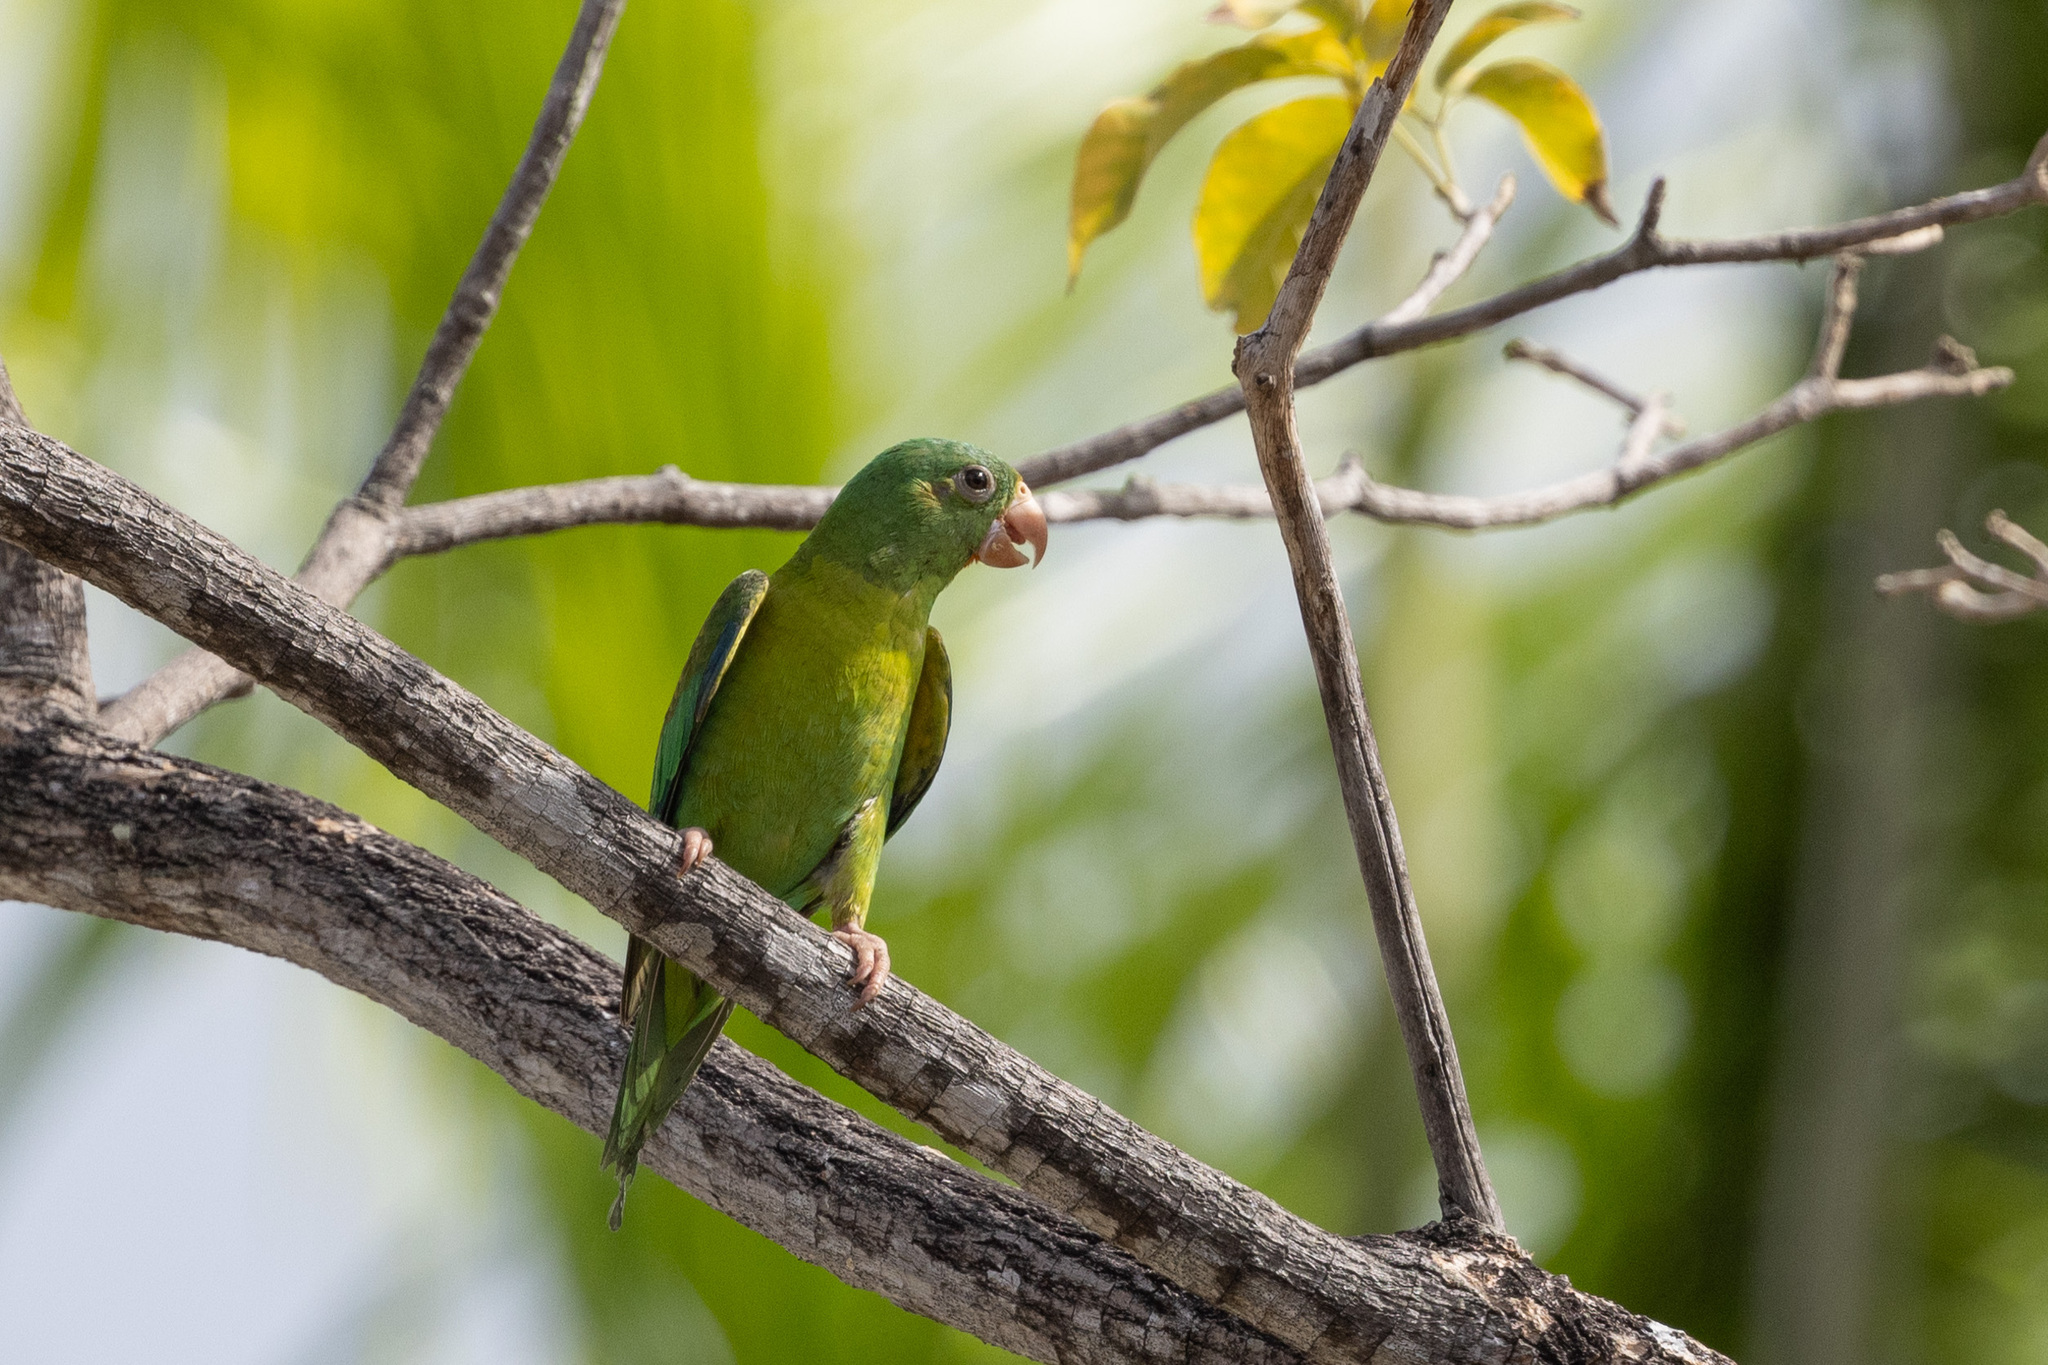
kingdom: Animalia
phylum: Chordata
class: Aves
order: Psittaciformes
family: Psittacidae
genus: Brotogeris
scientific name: Brotogeris jugularis
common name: Orange-chinned parakeet
